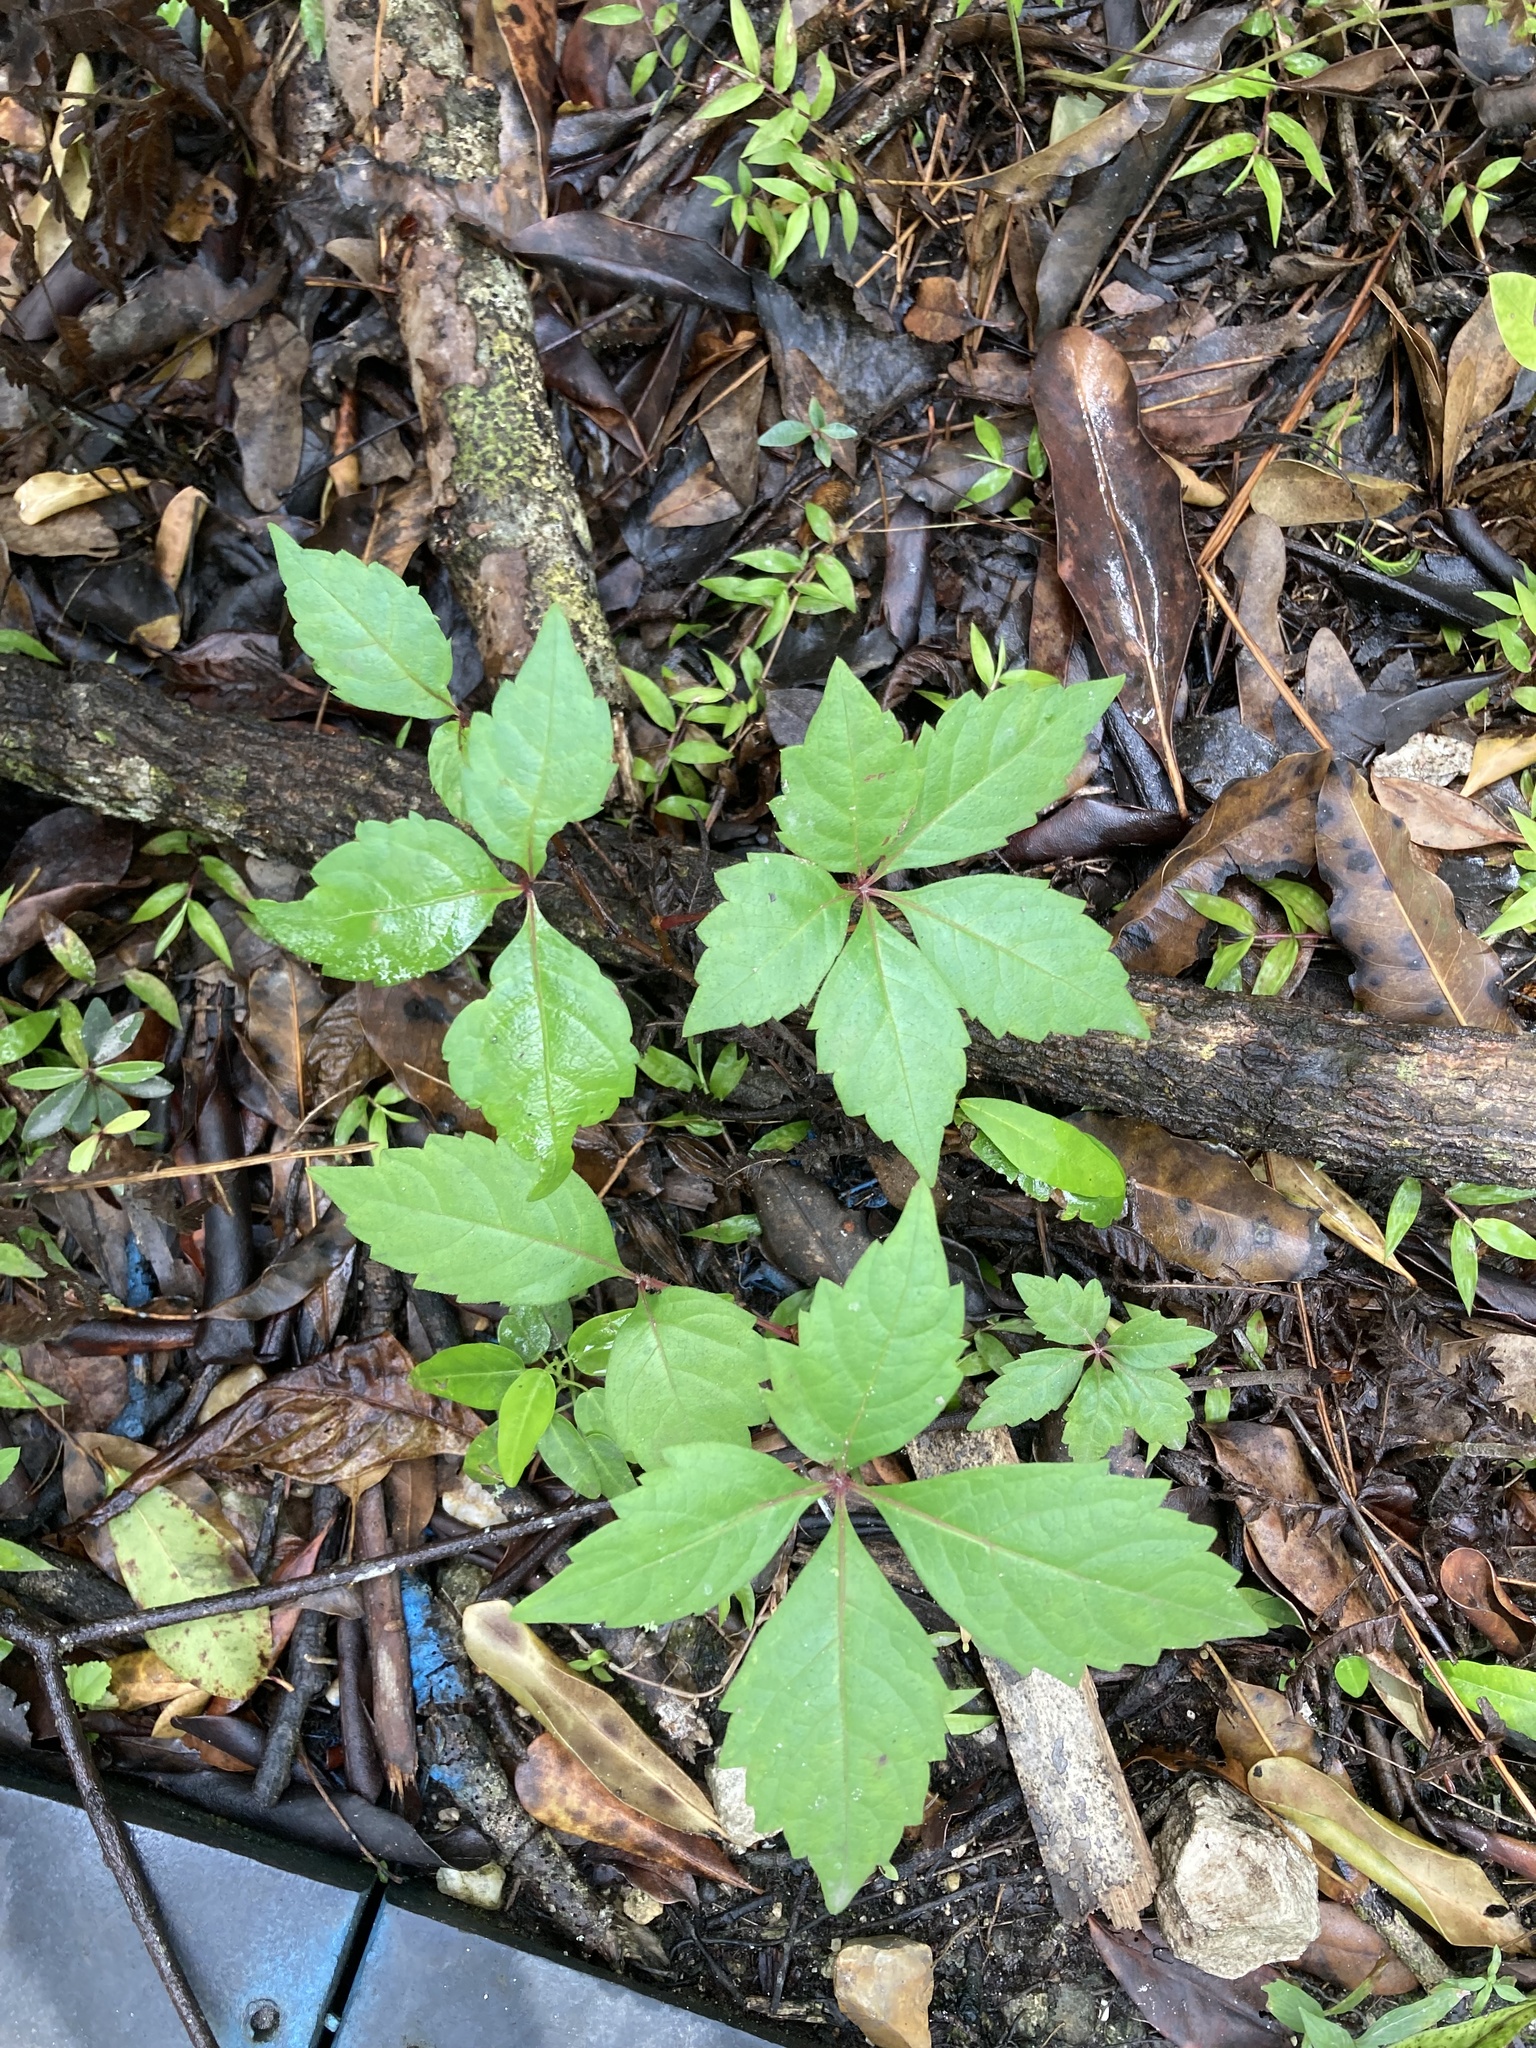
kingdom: Plantae
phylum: Tracheophyta
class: Magnoliopsida
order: Vitales
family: Vitaceae
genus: Parthenocissus
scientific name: Parthenocissus quinquefolia
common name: Virginia-creeper
